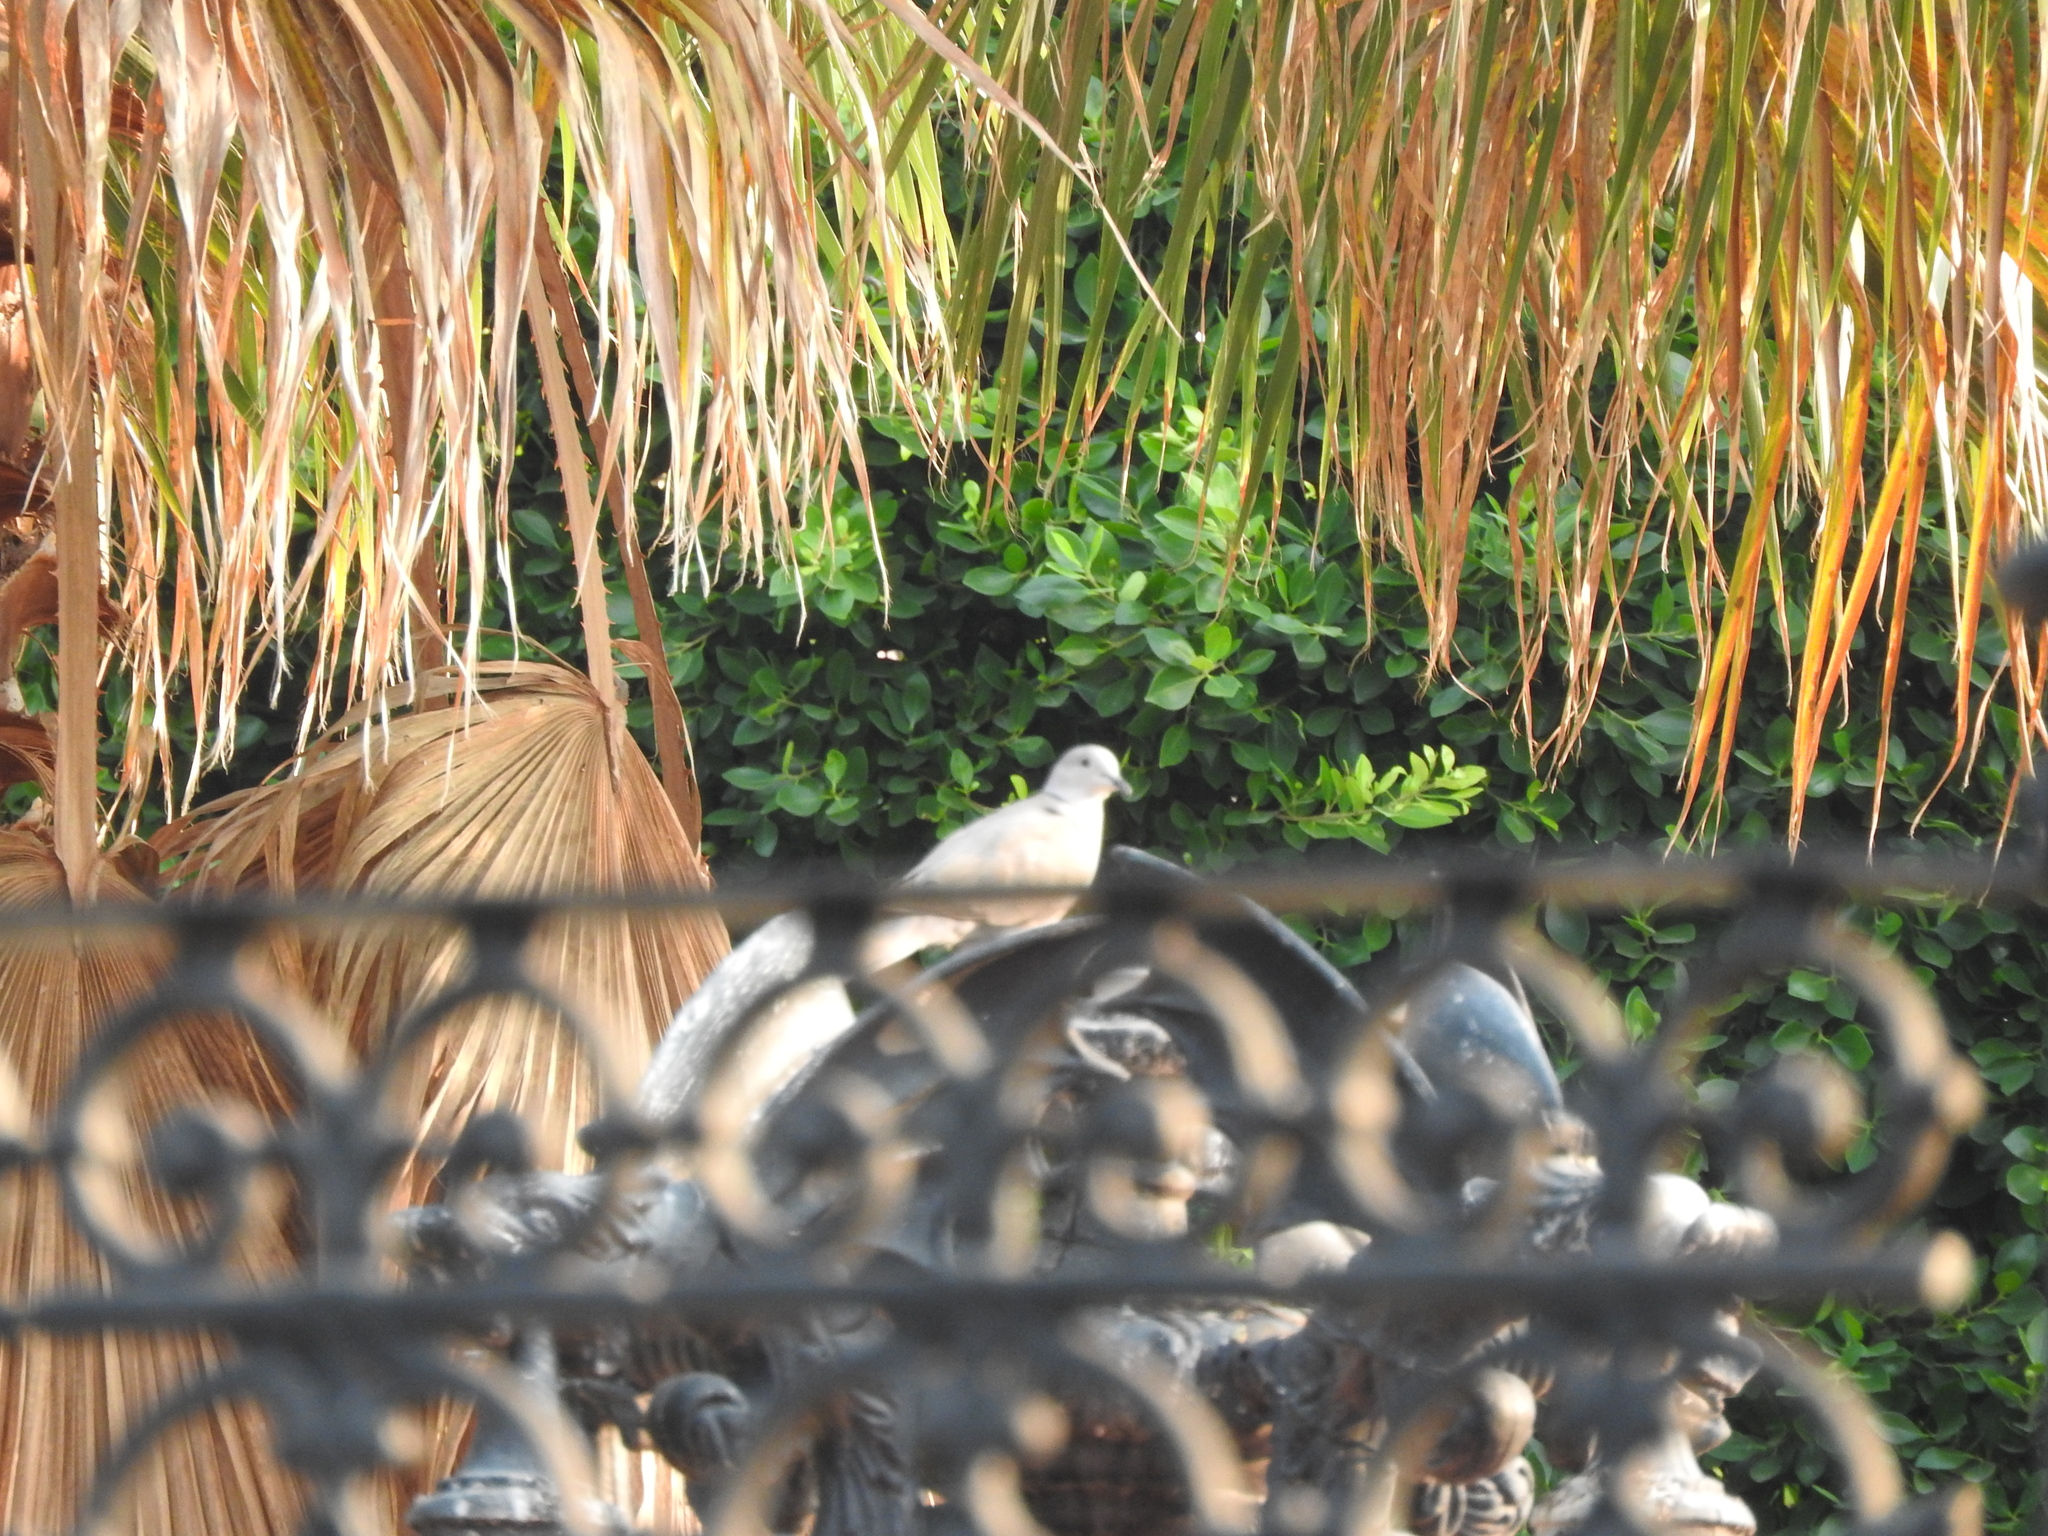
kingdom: Animalia
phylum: Chordata
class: Aves
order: Columbiformes
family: Columbidae
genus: Streptopelia
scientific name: Streptopelia decaocto
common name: Eurasian collared dove
